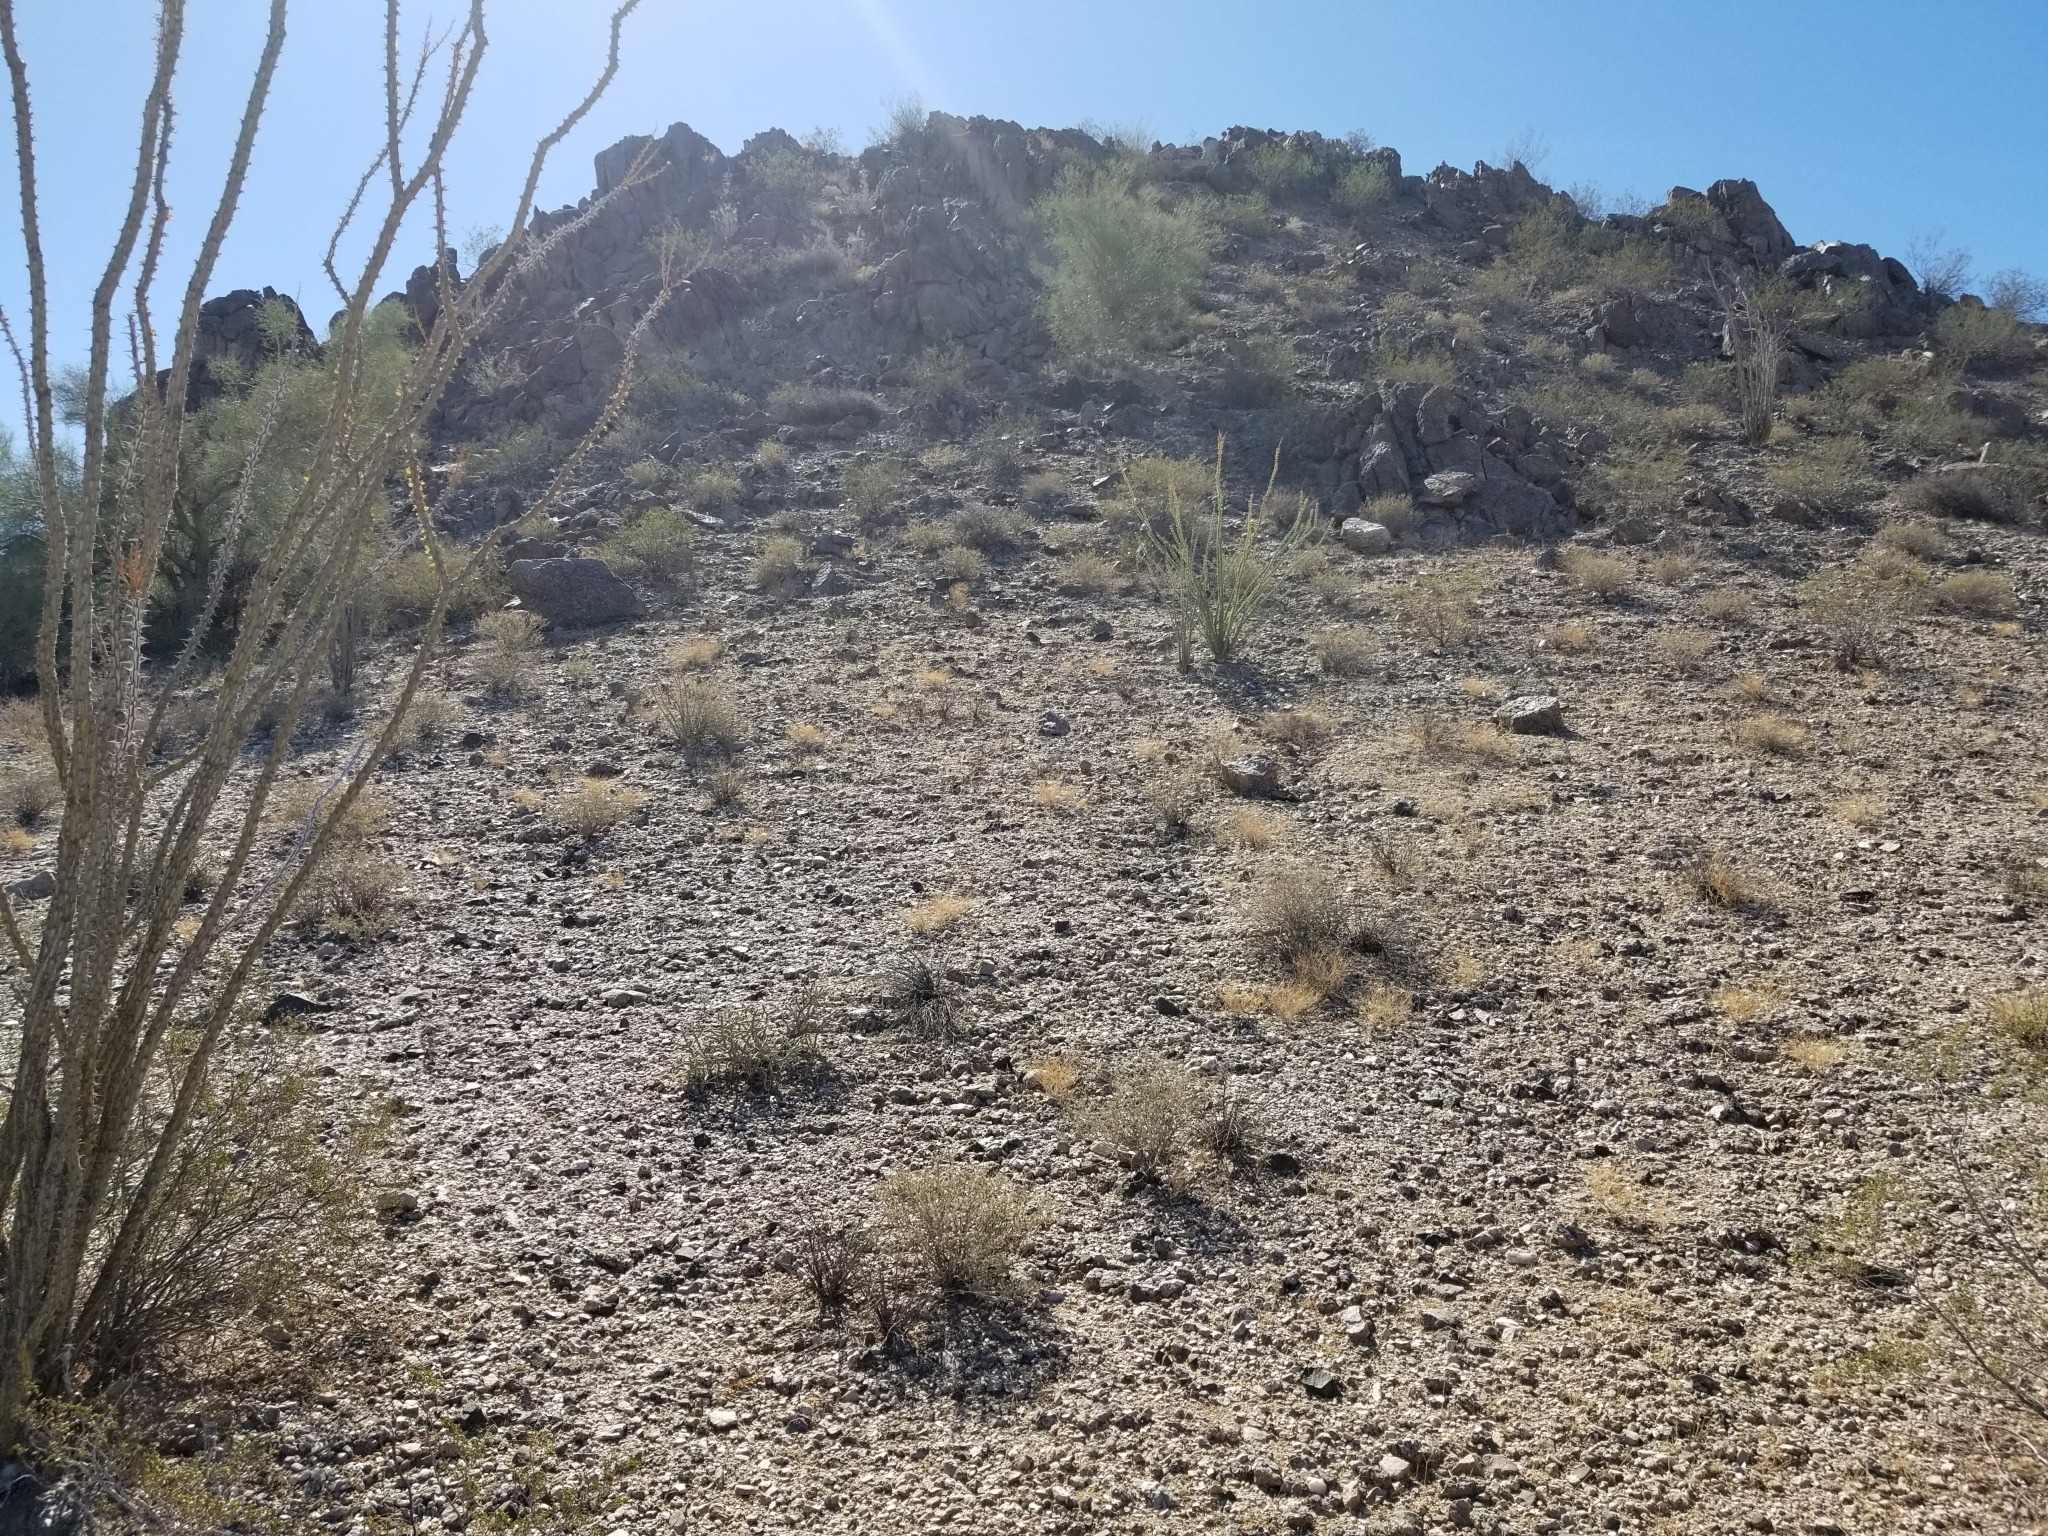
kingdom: Plantae
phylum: Tracheophyta
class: Magnoliopsida
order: Ericales
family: Fouquieriaceae
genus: Fouquieria
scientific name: Fouquieria splendens
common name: Vine-cactus
